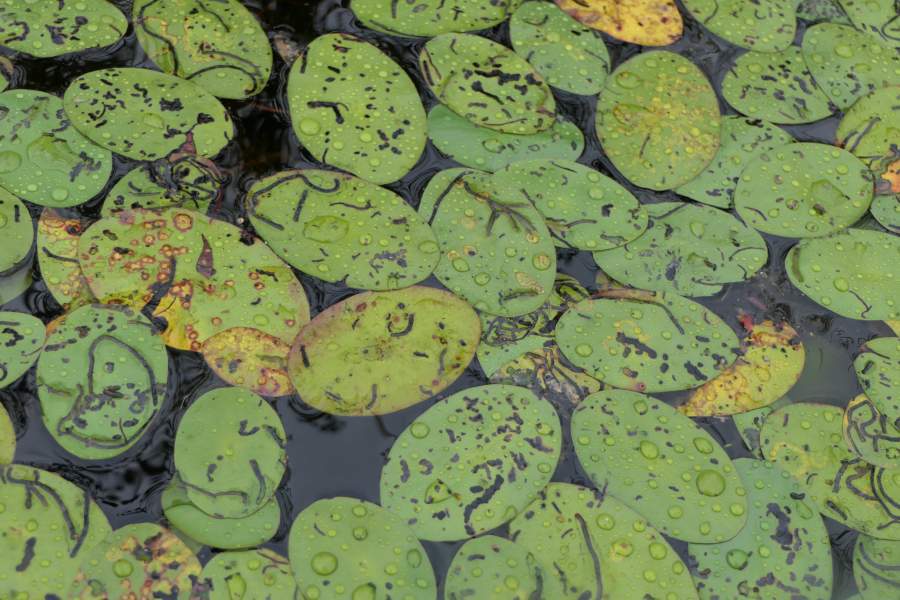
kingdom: Plantae
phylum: Tracheophyta
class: Magnoliopsida
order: Nymphaeales
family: Cabombaceae
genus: Brasenia
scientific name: Brasenia schreberi
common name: Water-shield
